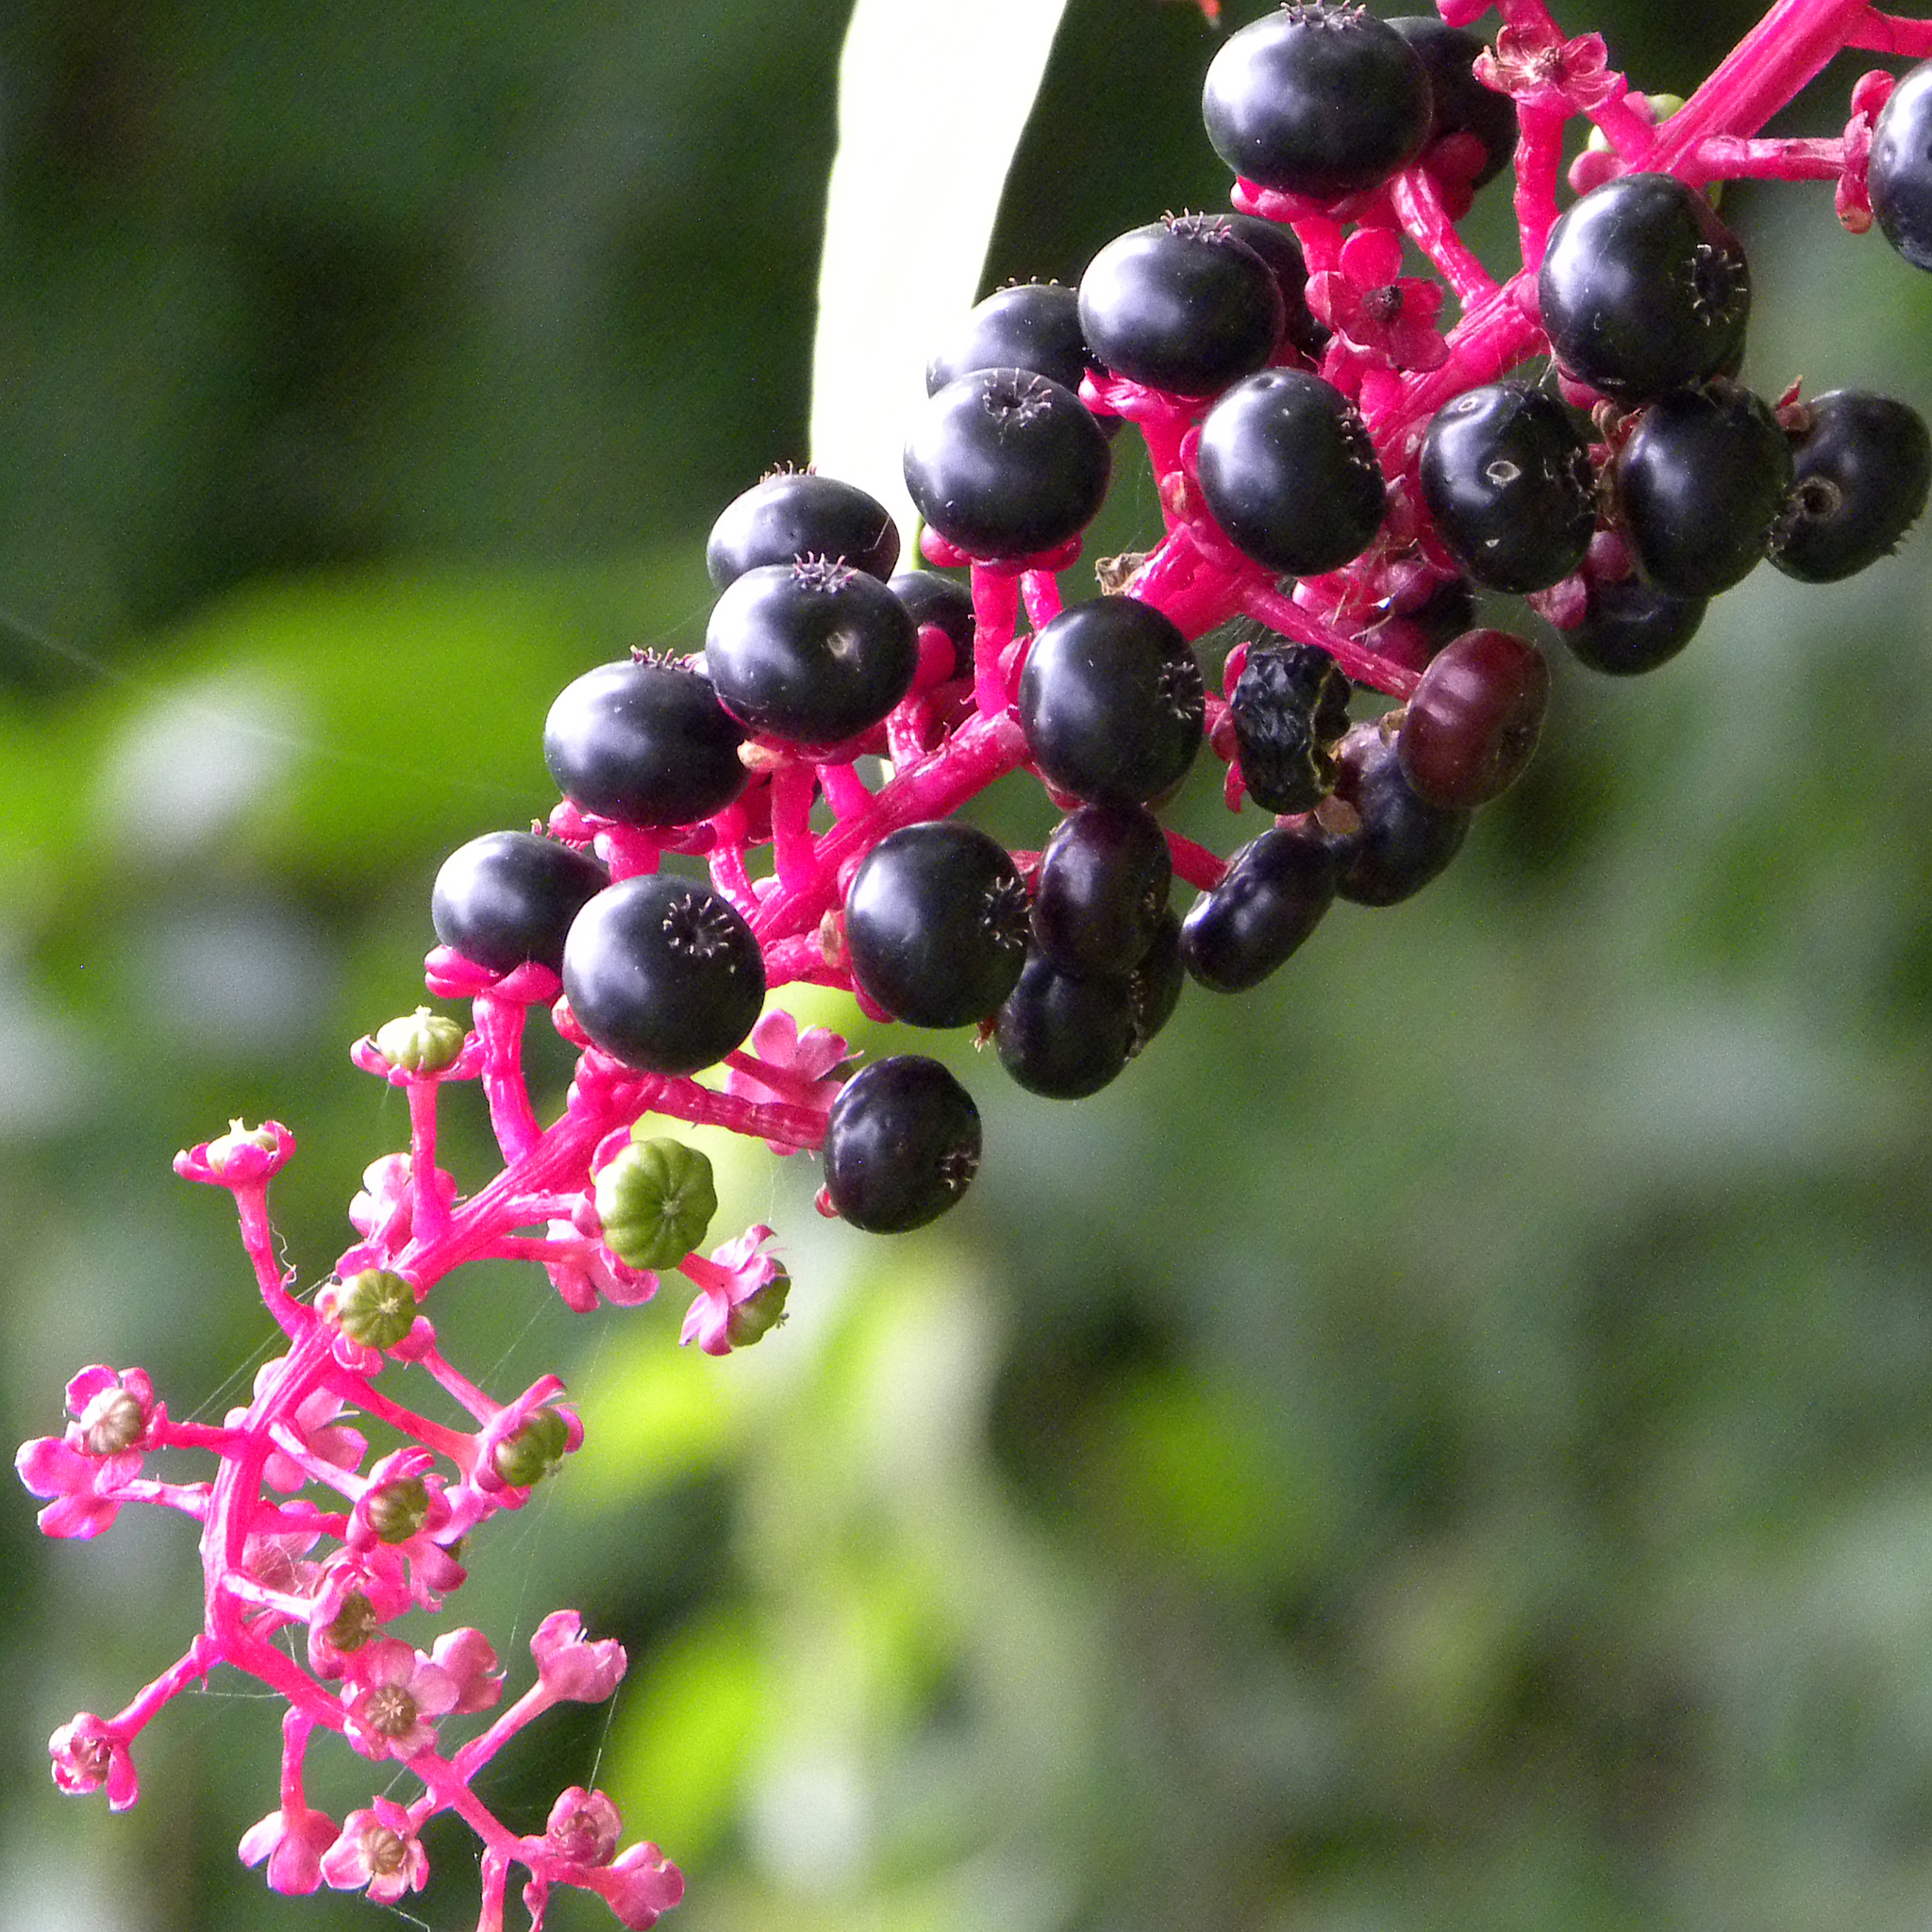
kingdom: Plantae
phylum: Tracheophyta
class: Magnoliopsida
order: Caryophyllales
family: Phytolaccaceae
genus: Phytolacca
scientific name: Phytolacca americana
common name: American pokeweed
